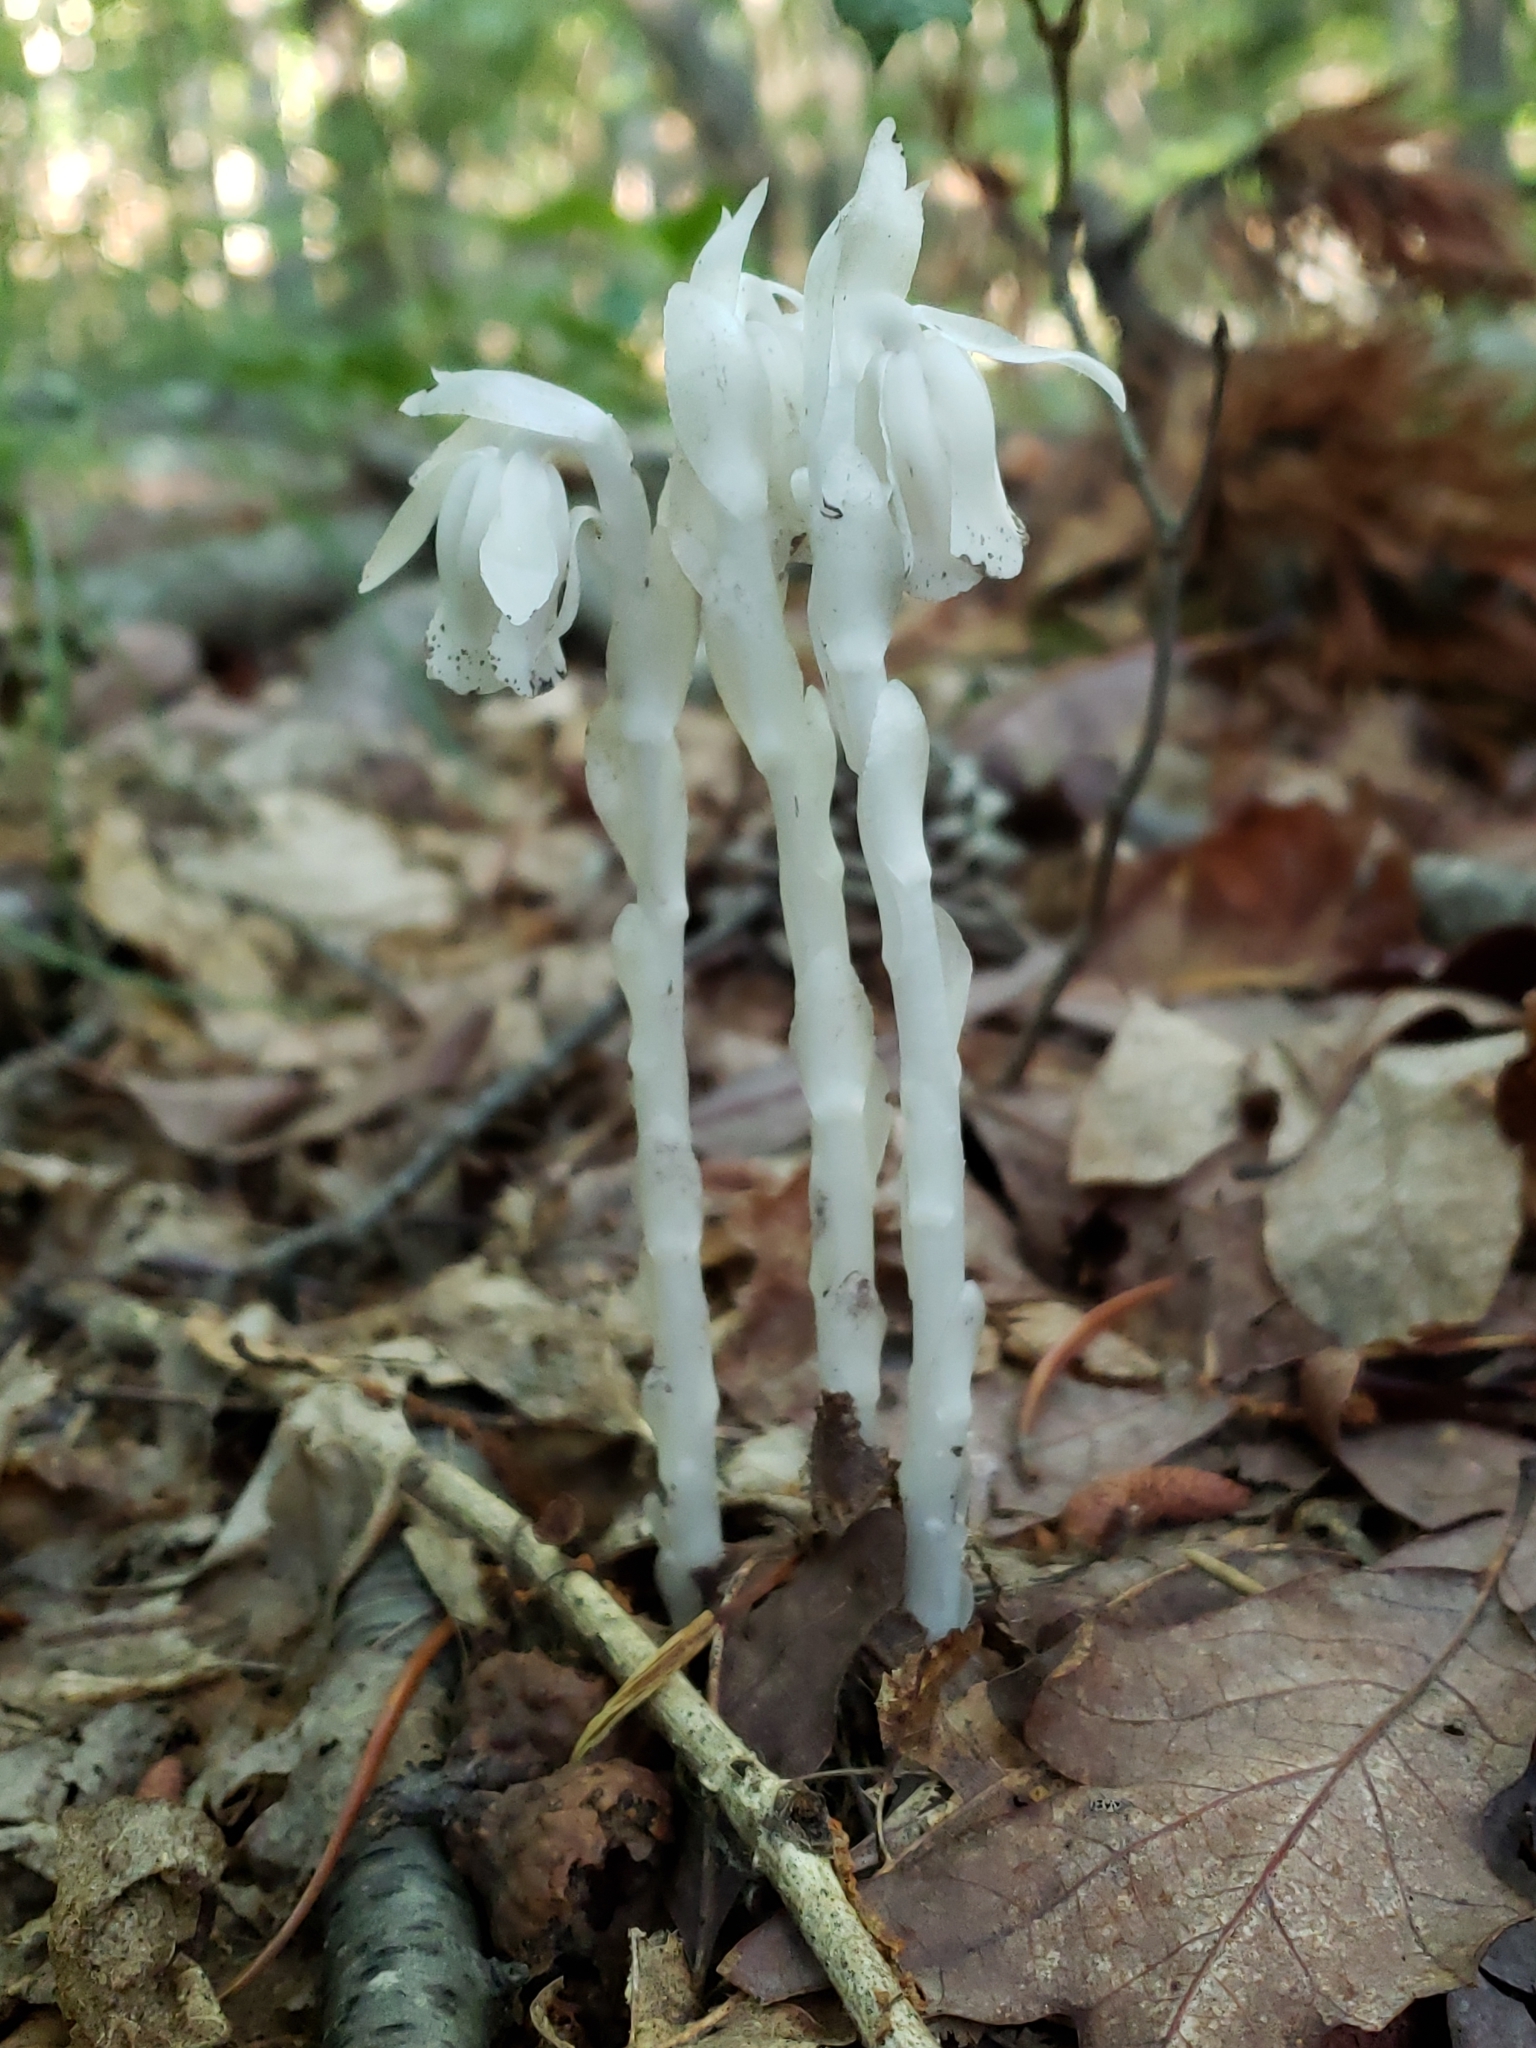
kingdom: Plantae
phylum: Tracheophyta
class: Magnoliopsida
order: Ericales
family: Ericaceae
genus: Monotropa
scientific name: Monotropa uniflora
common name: Convulsion root
